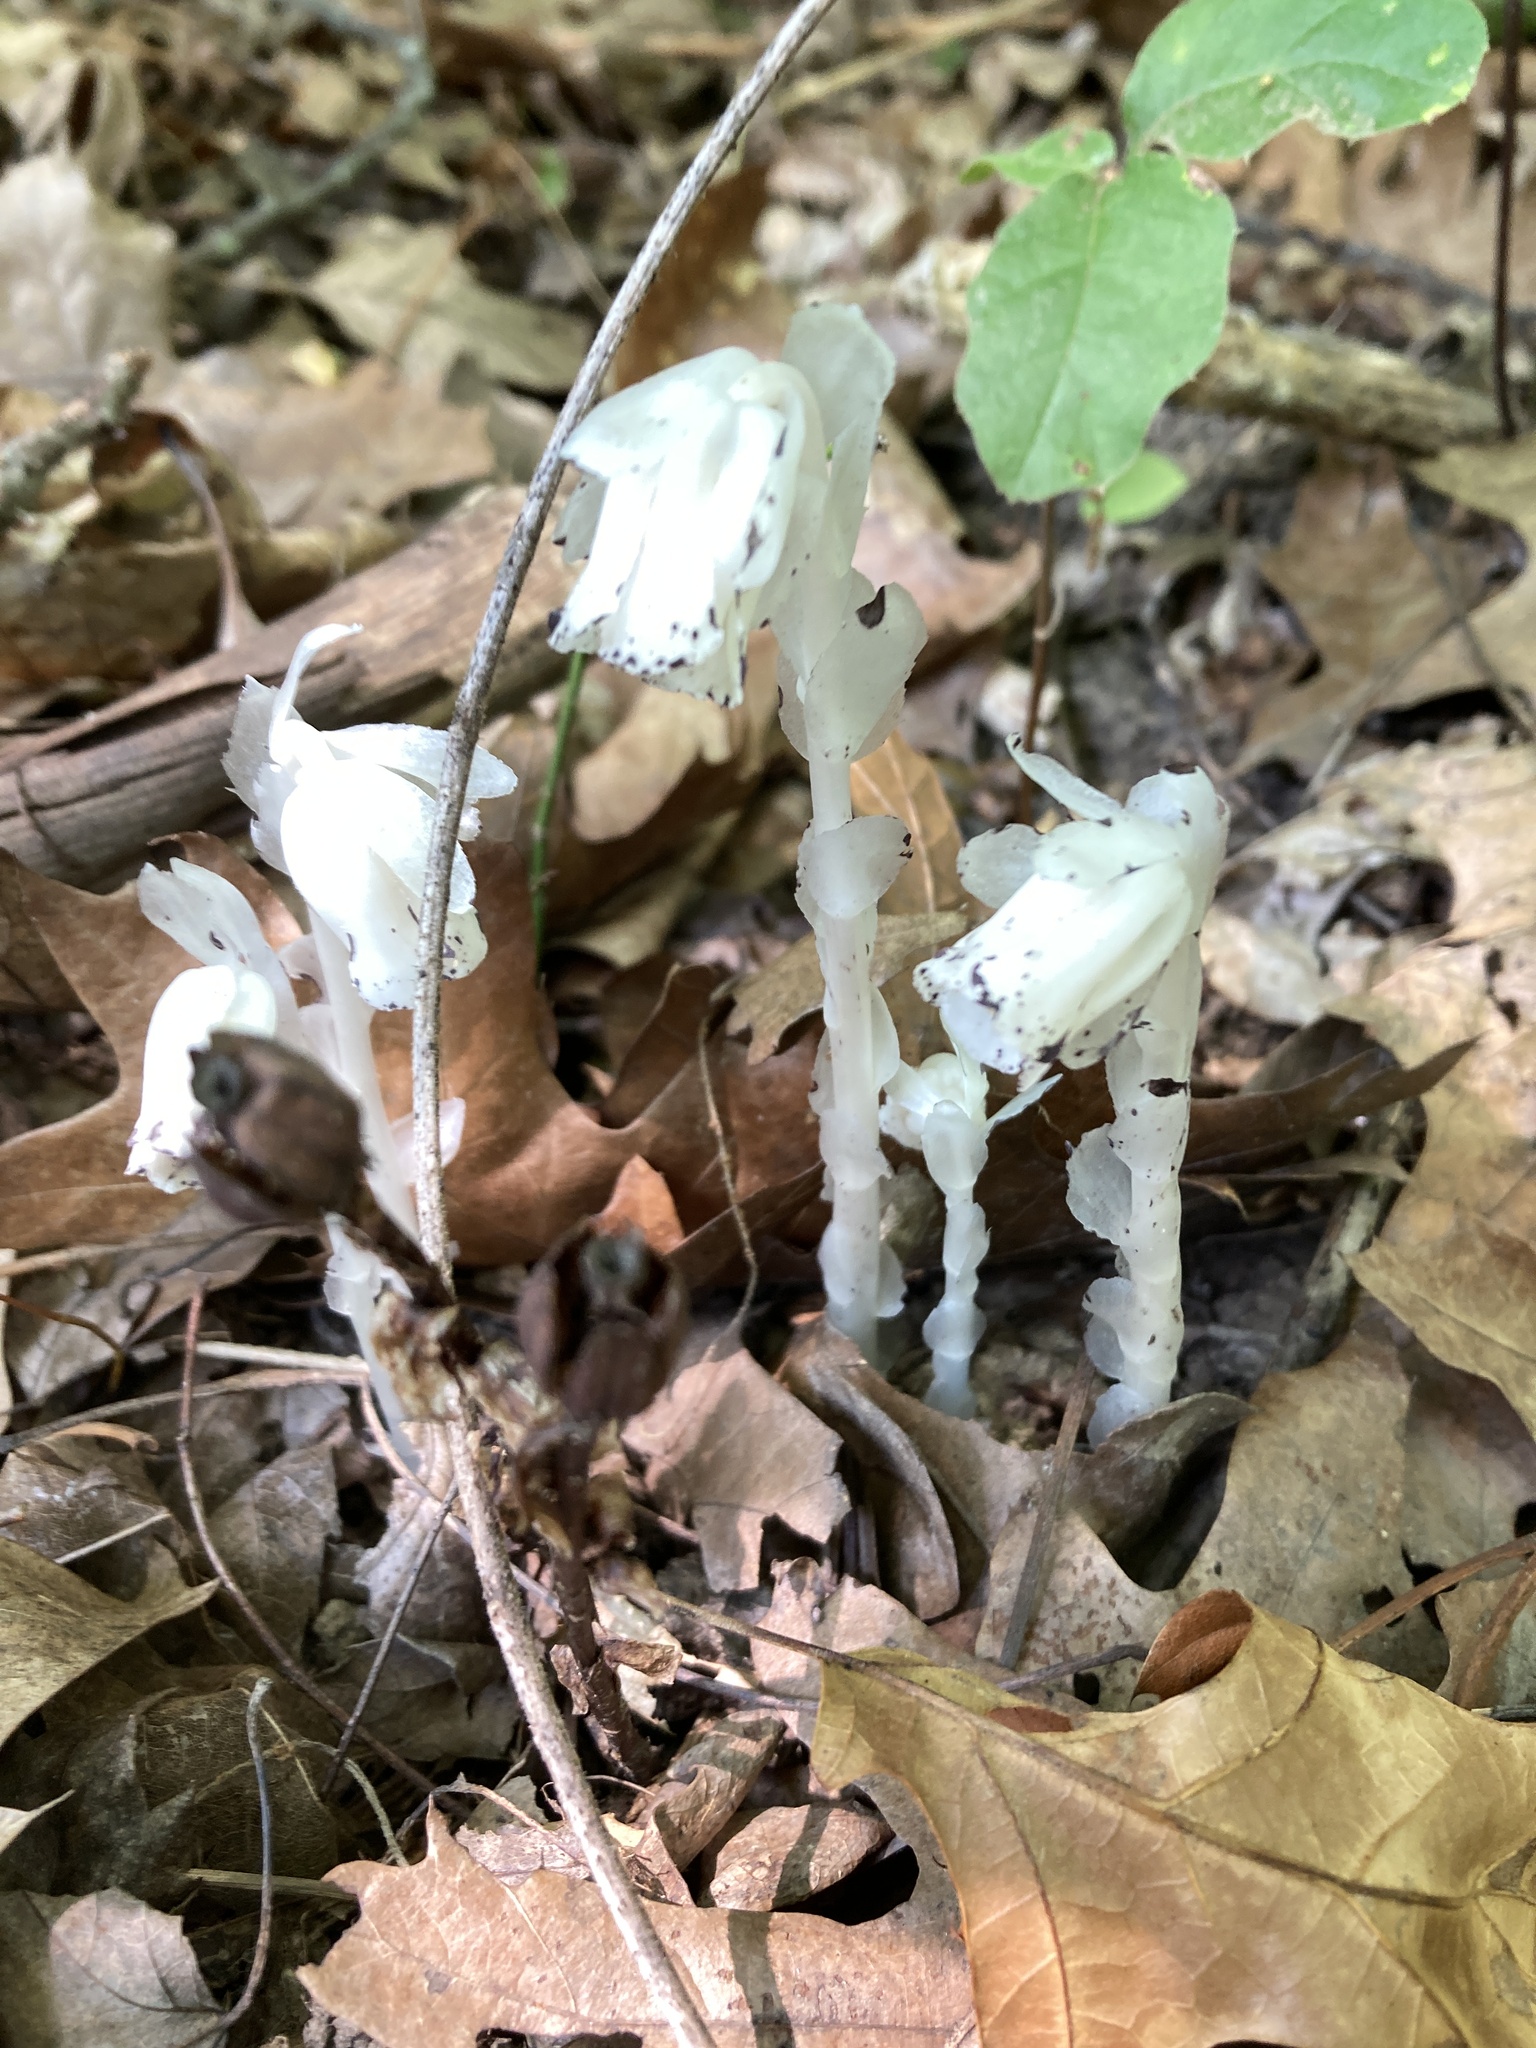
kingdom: Plantae
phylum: Tracheophyta
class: Magnoliopsida
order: Ericales
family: Ericaceae
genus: Monotropa
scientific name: Monotropa uniflora
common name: Convulsion root
